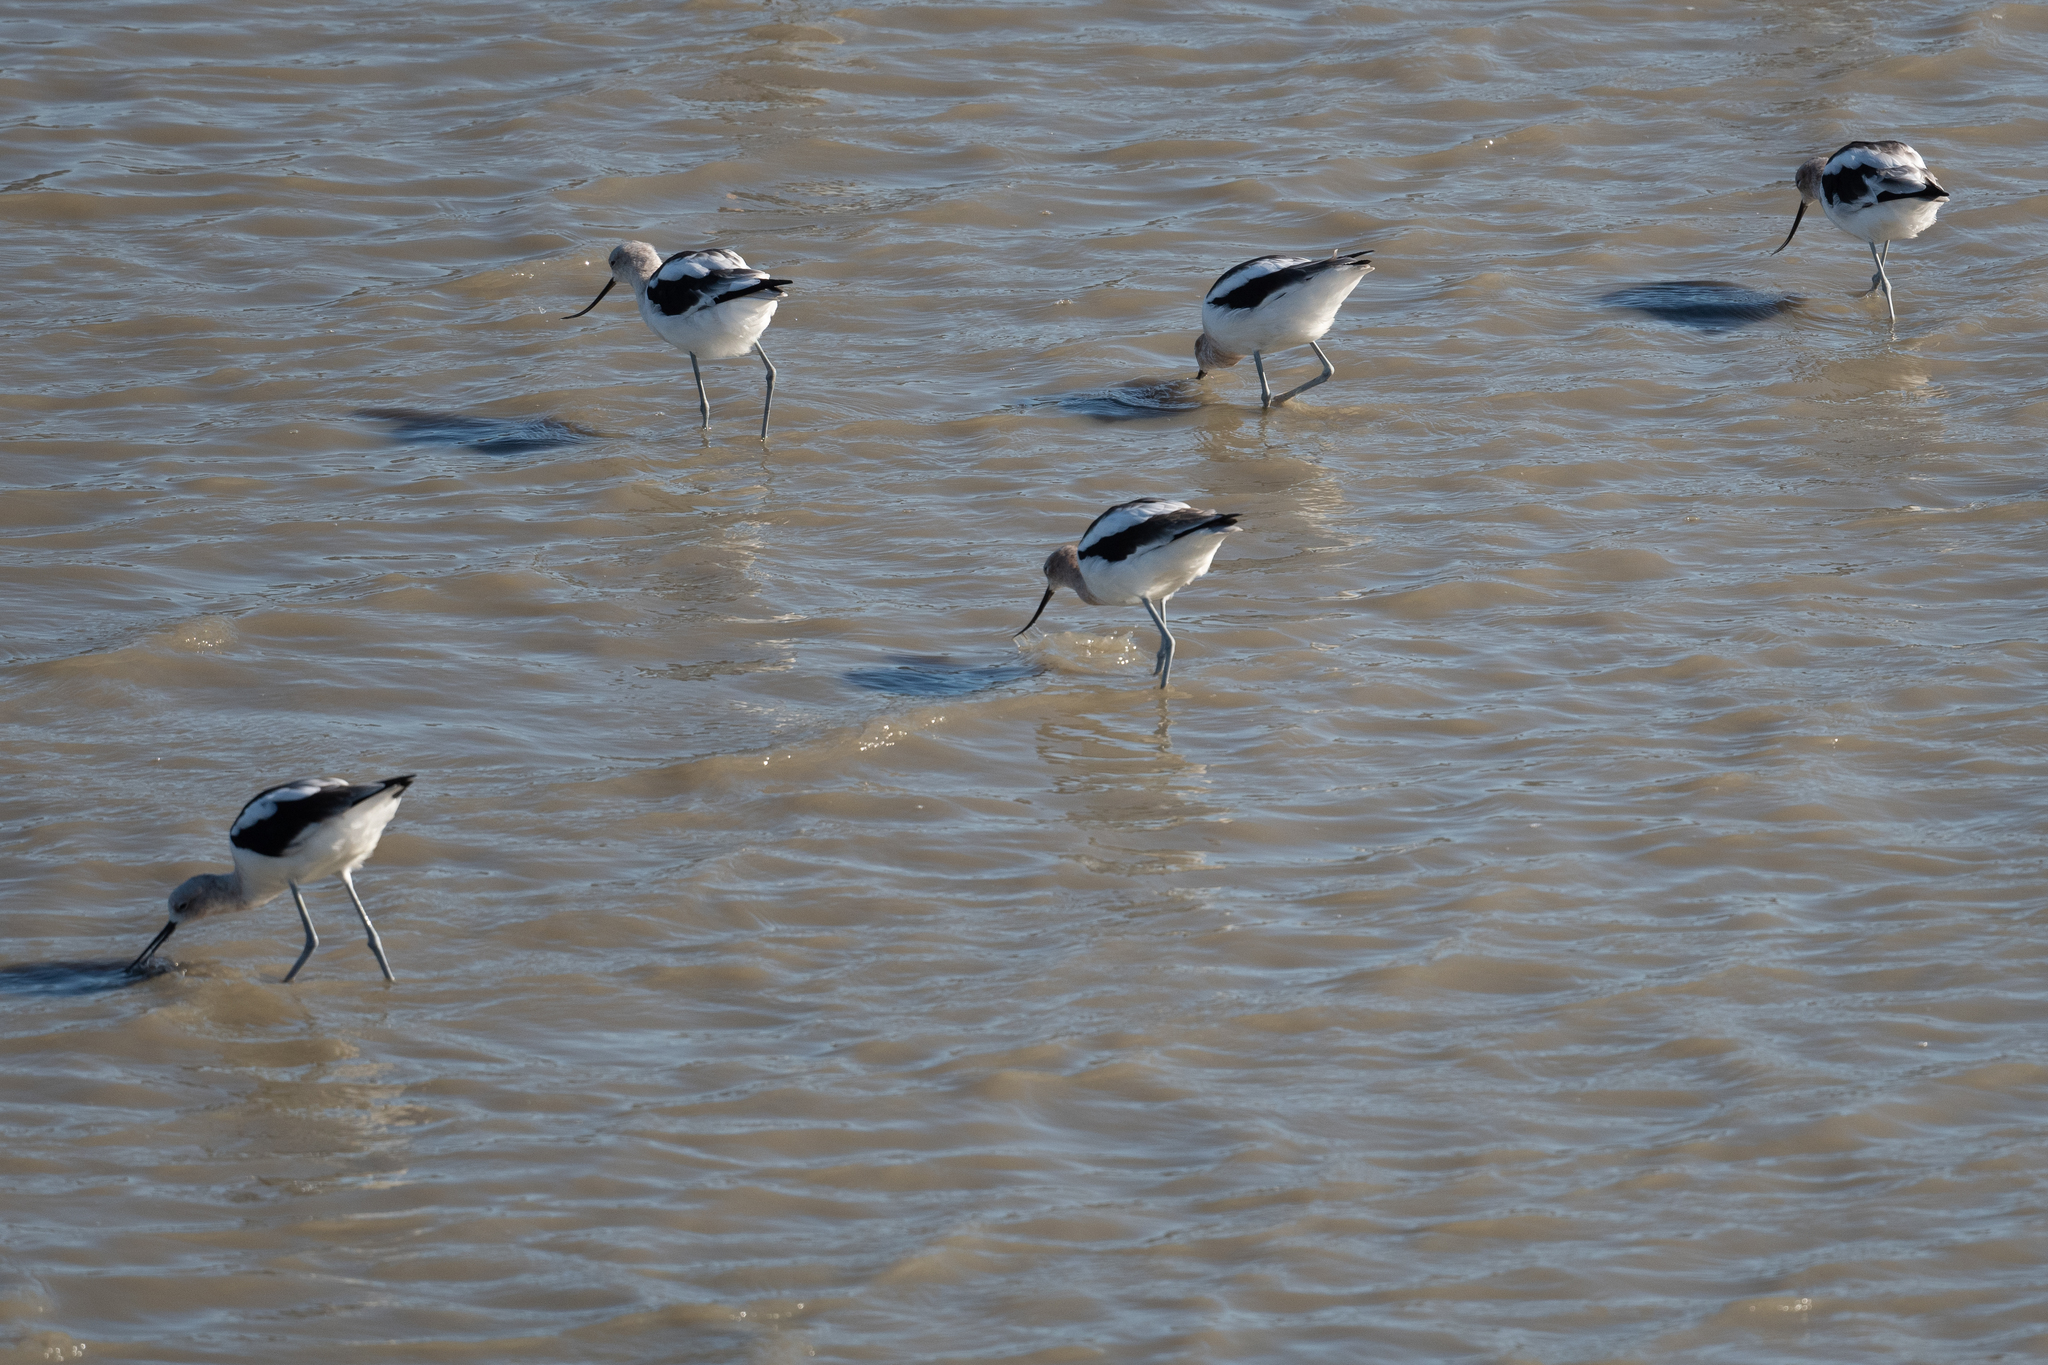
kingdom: Animalia
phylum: Chordata
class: Aves
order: Charadriiformes
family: Recurvirostridae
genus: Recurvirostra
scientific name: Recurvirostra americana
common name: American avocet
